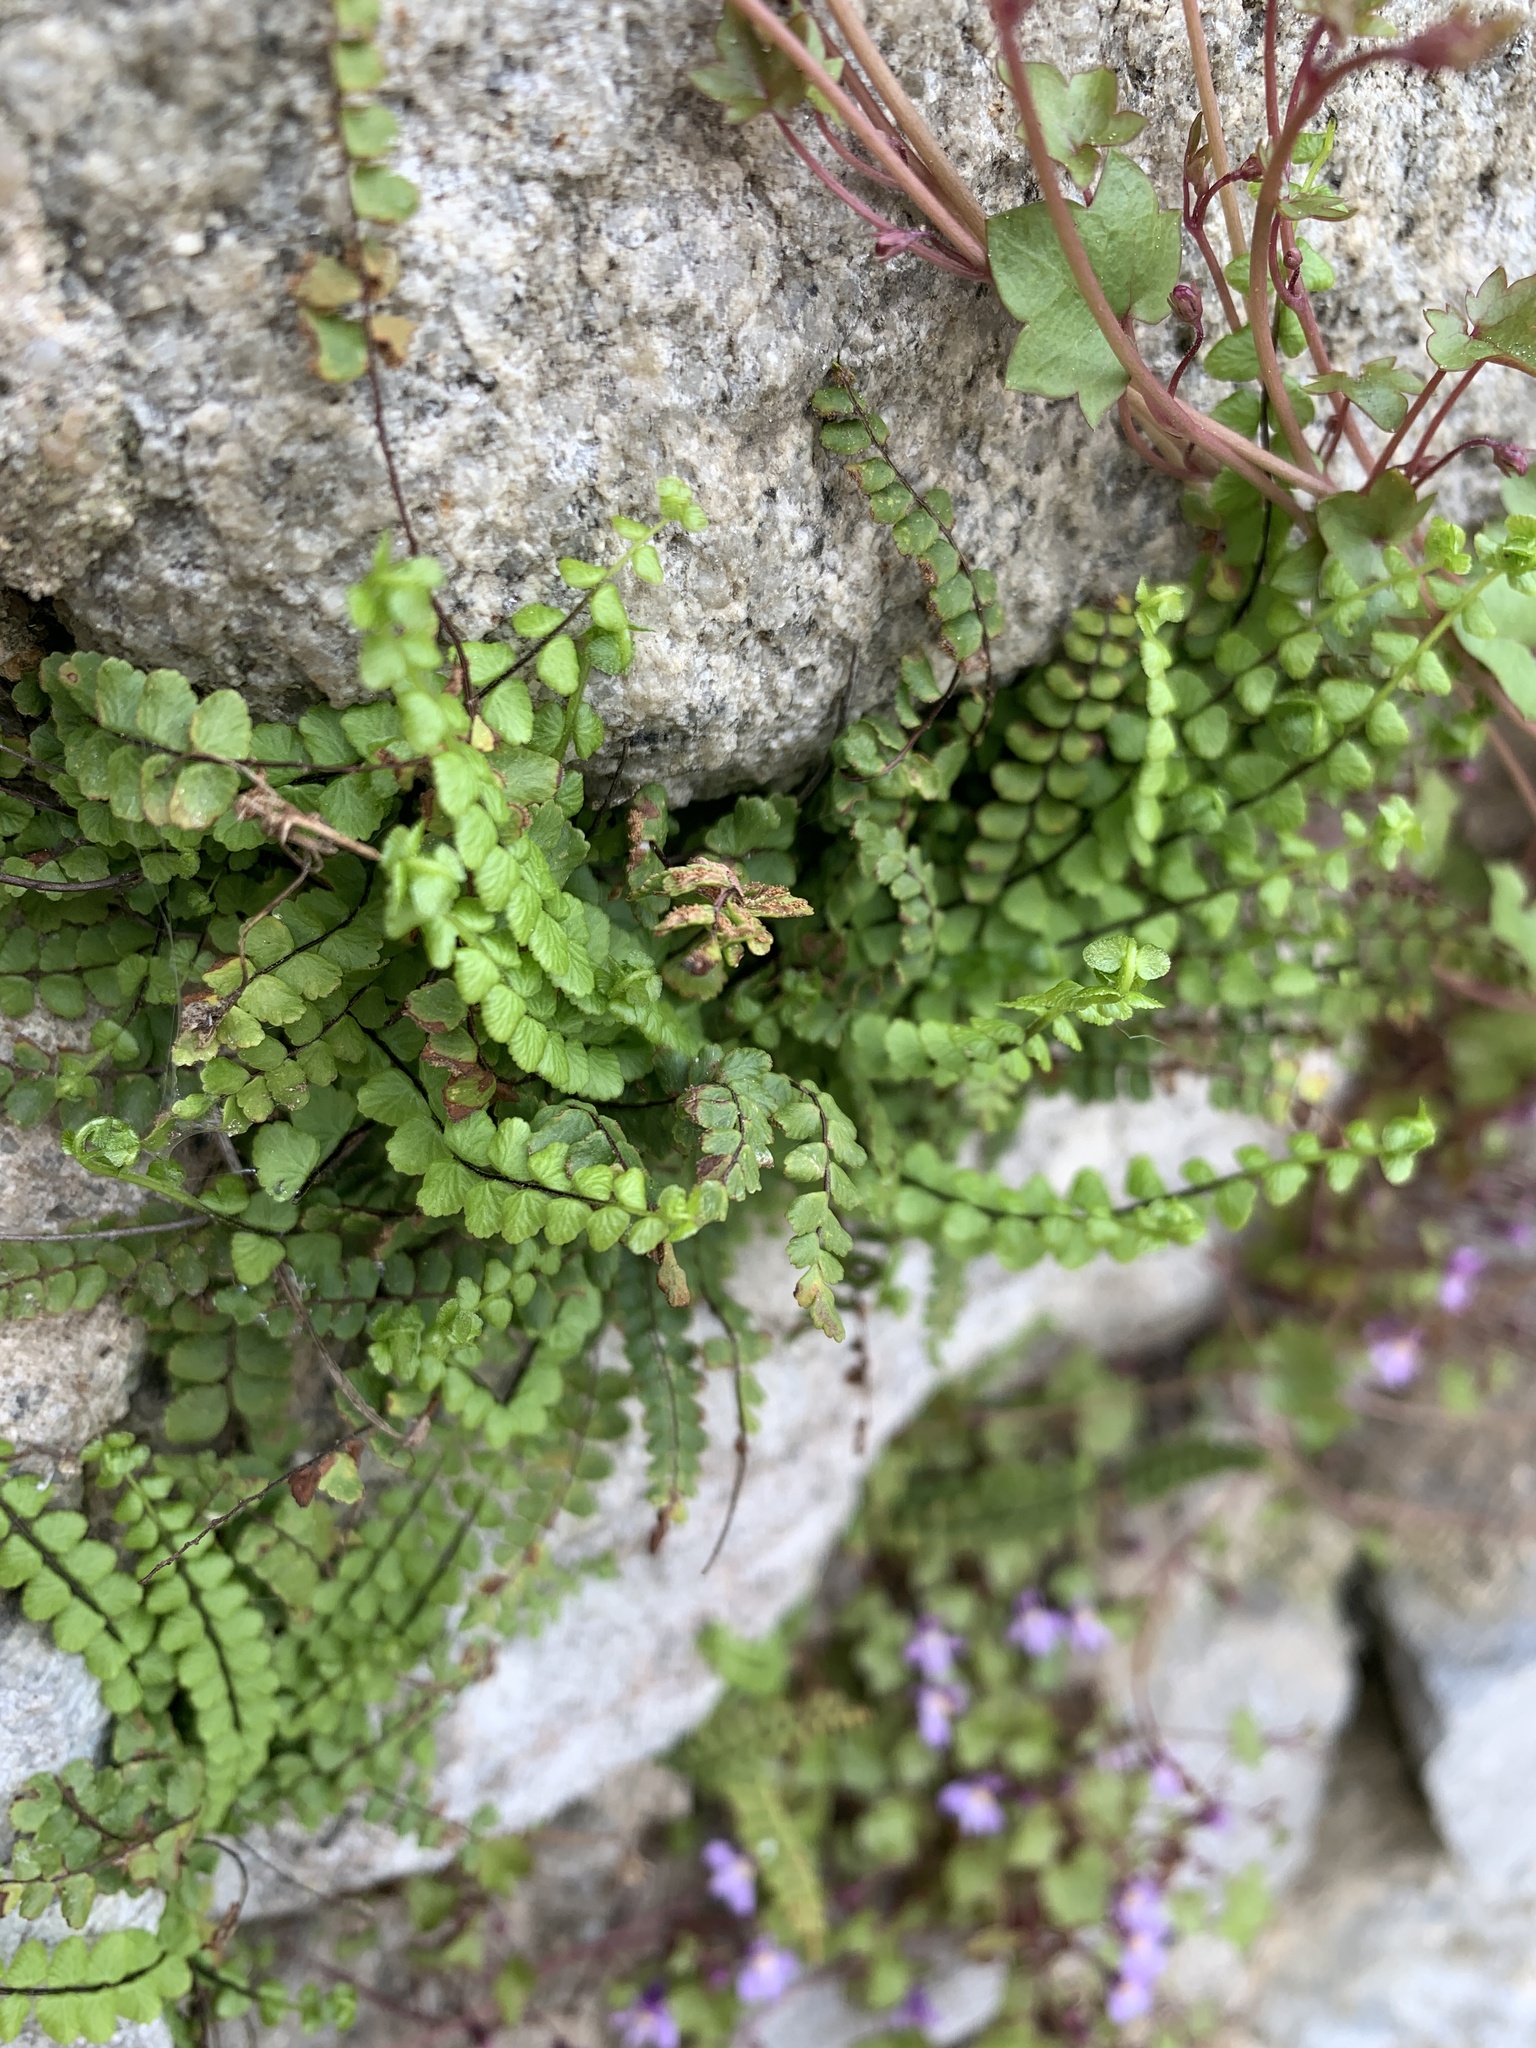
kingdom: Plantae
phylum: Tracheophyta
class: Polypodiopsida
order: Polypodiales
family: Aspleniaceae
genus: Asplenium
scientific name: Asplenium trichomanes
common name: Maidenhair spleenwort
